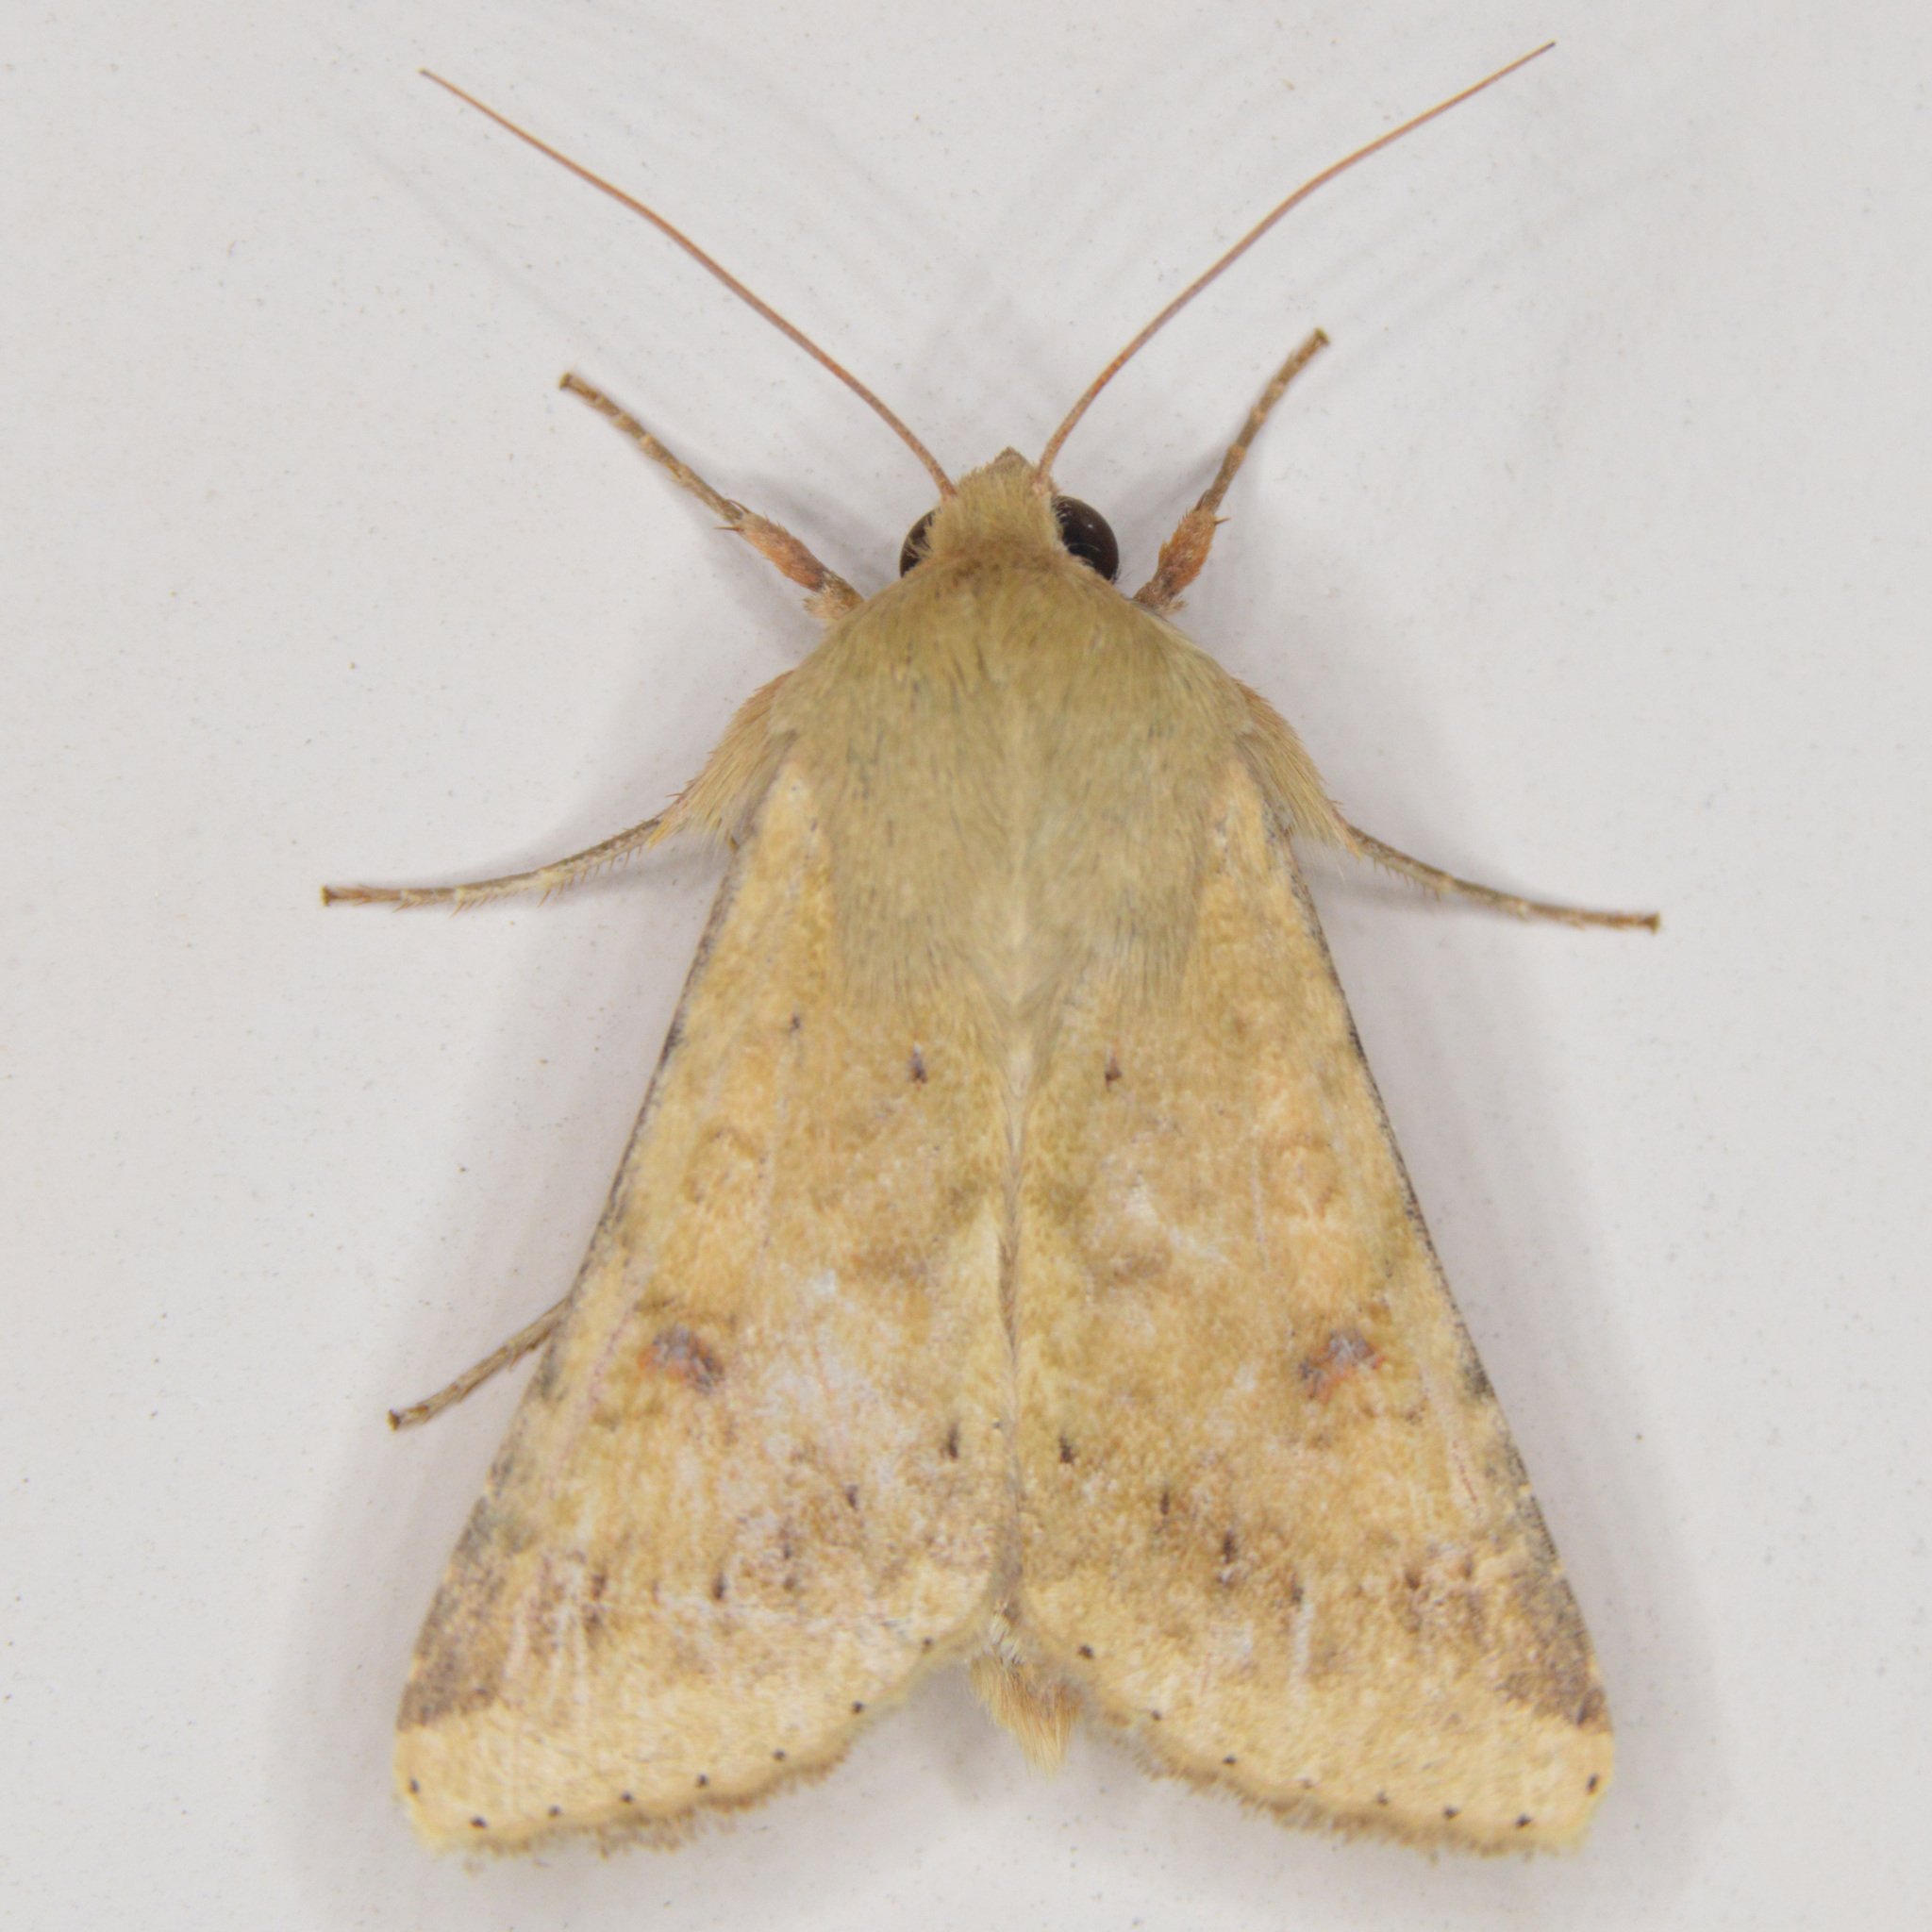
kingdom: Animalia
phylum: Arthropoda
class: Insecta
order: Lepidoptera
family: Noctuidae
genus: Helicoverpa
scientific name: Helicoverpa zea
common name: Bollworm
